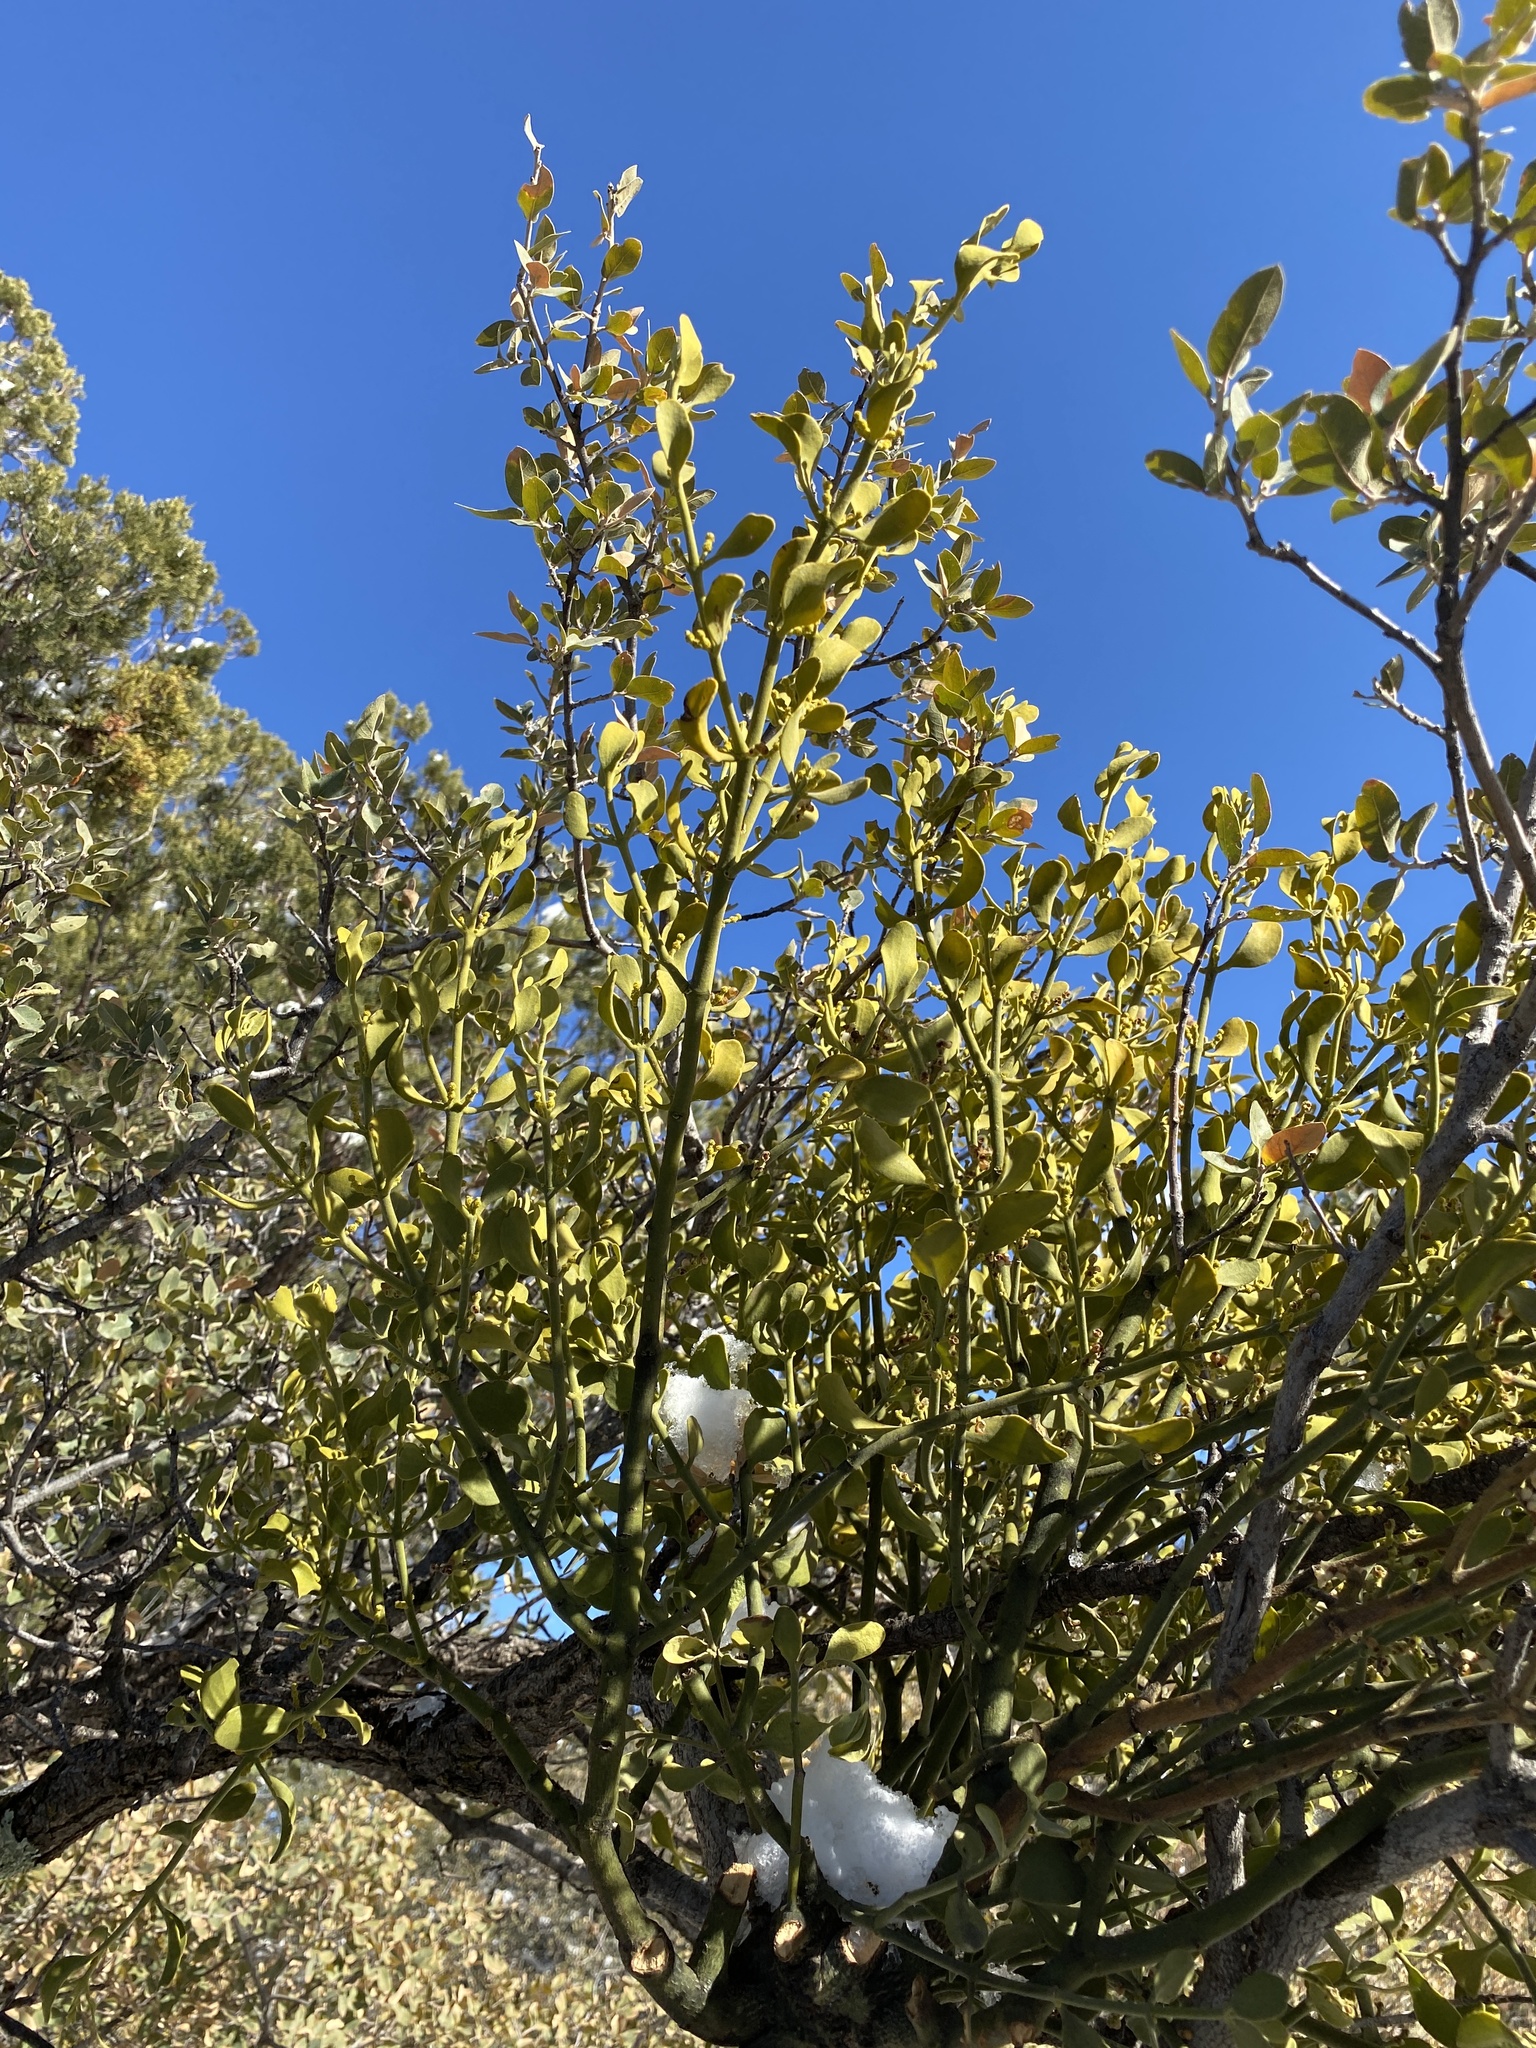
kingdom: Plantae
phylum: Tracheophyta
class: Magnoliopsida
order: Santalales
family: Viscaceae
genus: Phoradendron
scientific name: Phoradendron coryae
